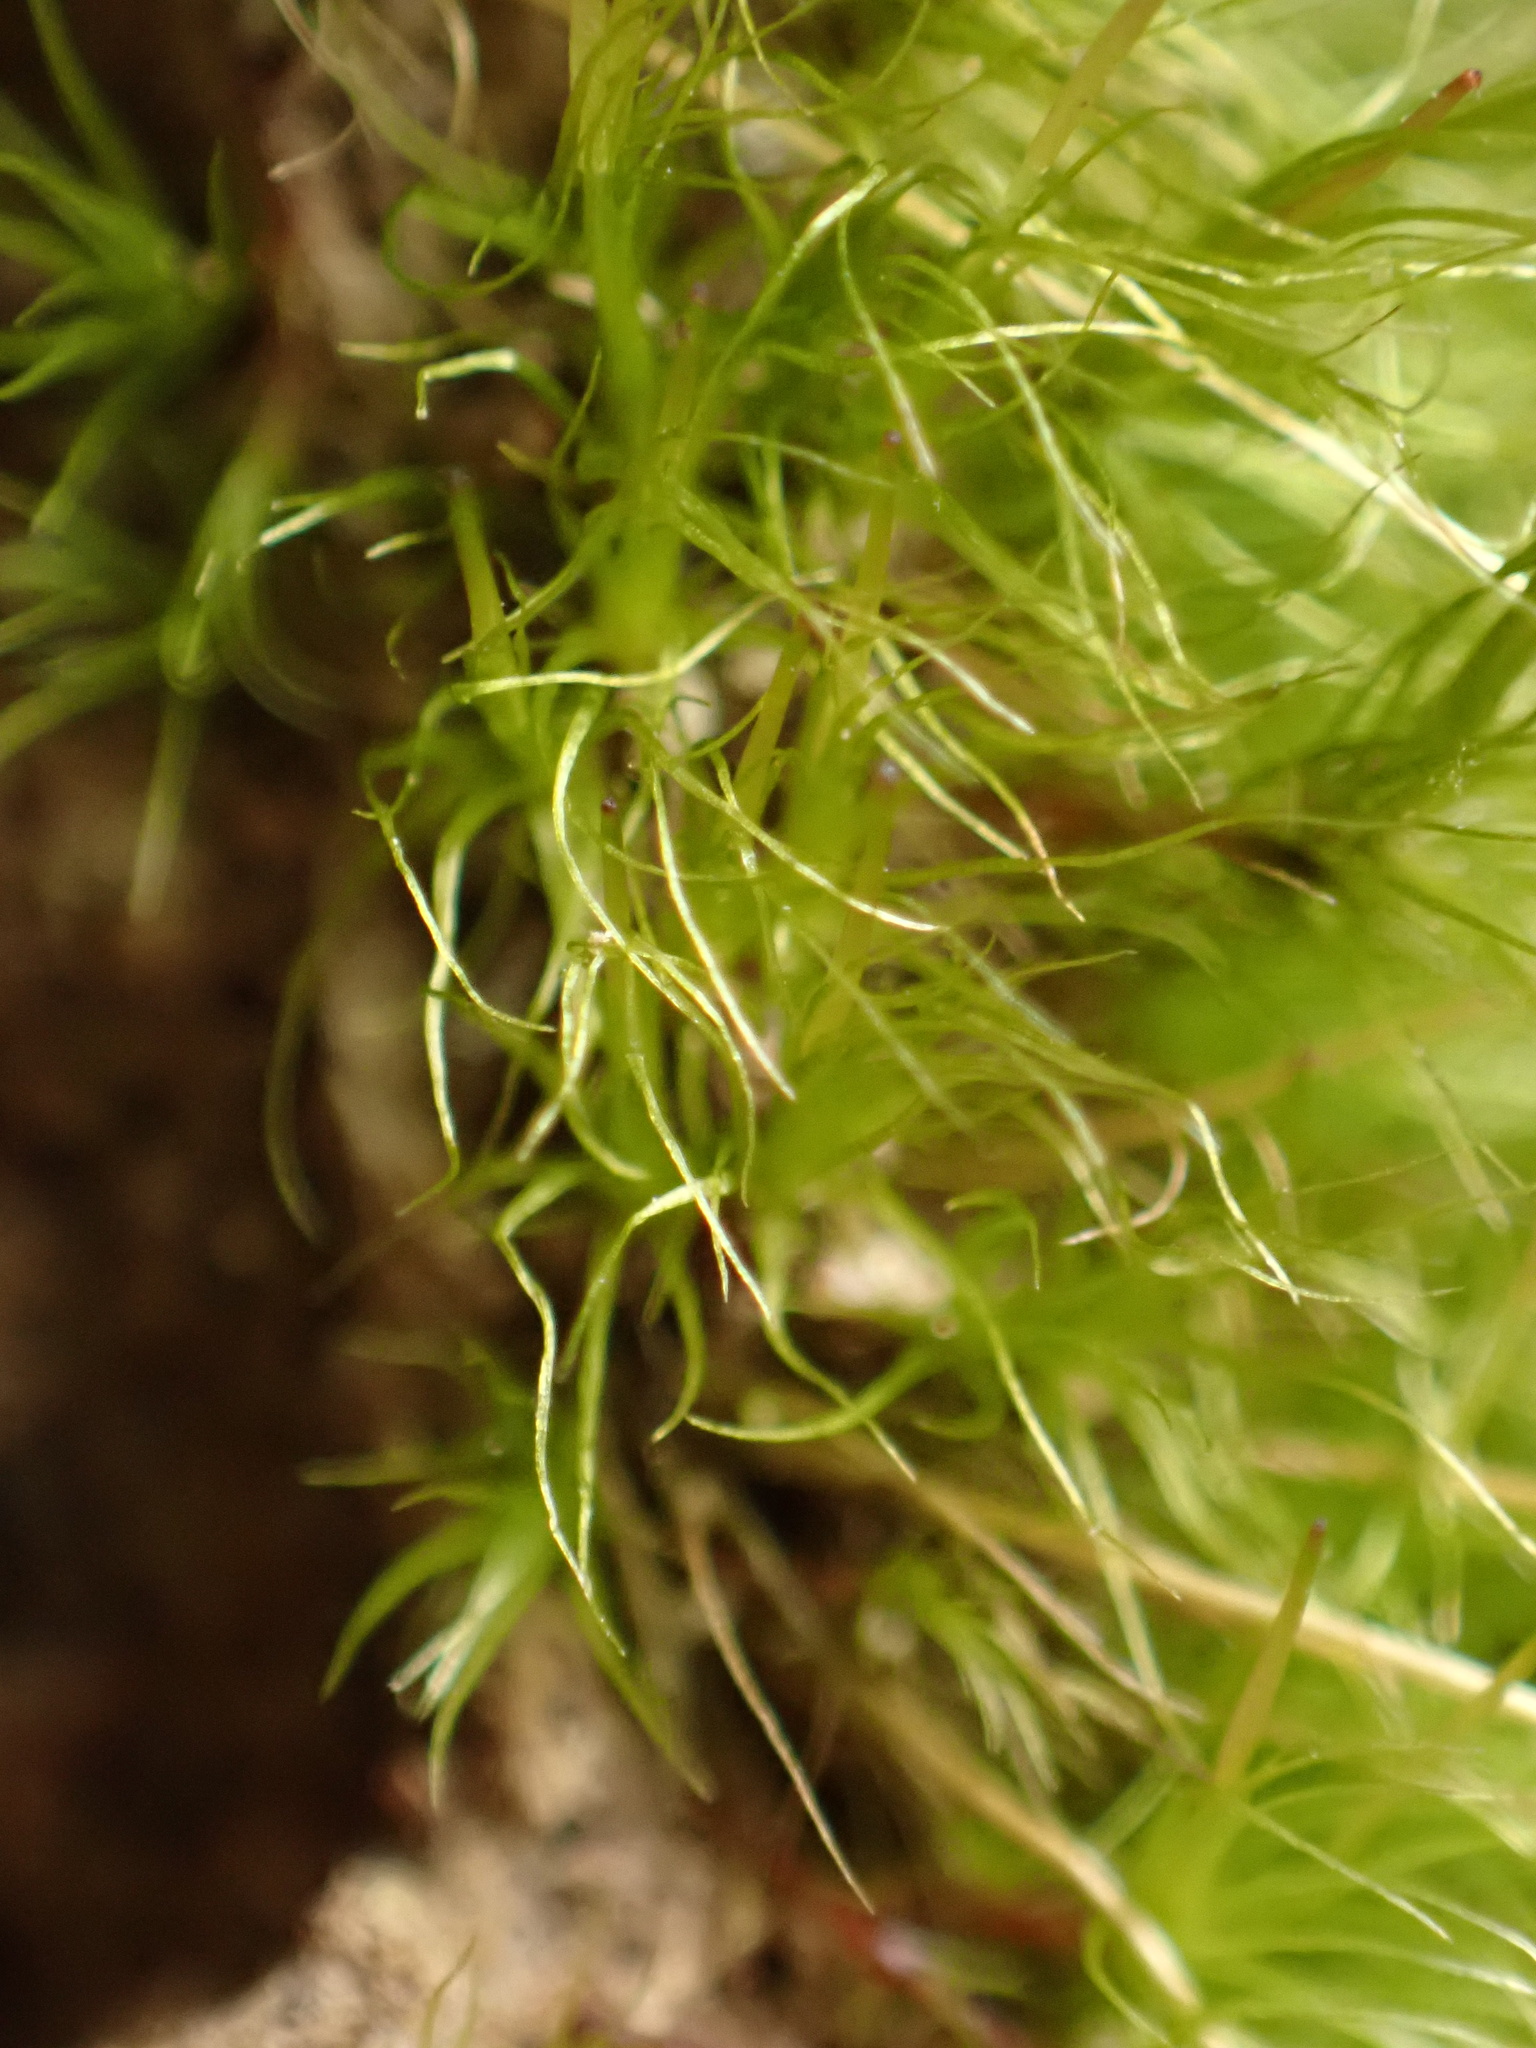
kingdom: Plantae
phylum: Bryophyta
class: Bryopsida
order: Dicranales
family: Ditrichaceae
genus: Ditrichum
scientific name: Ditrichum pallidum
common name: Pale cow-hair moss
